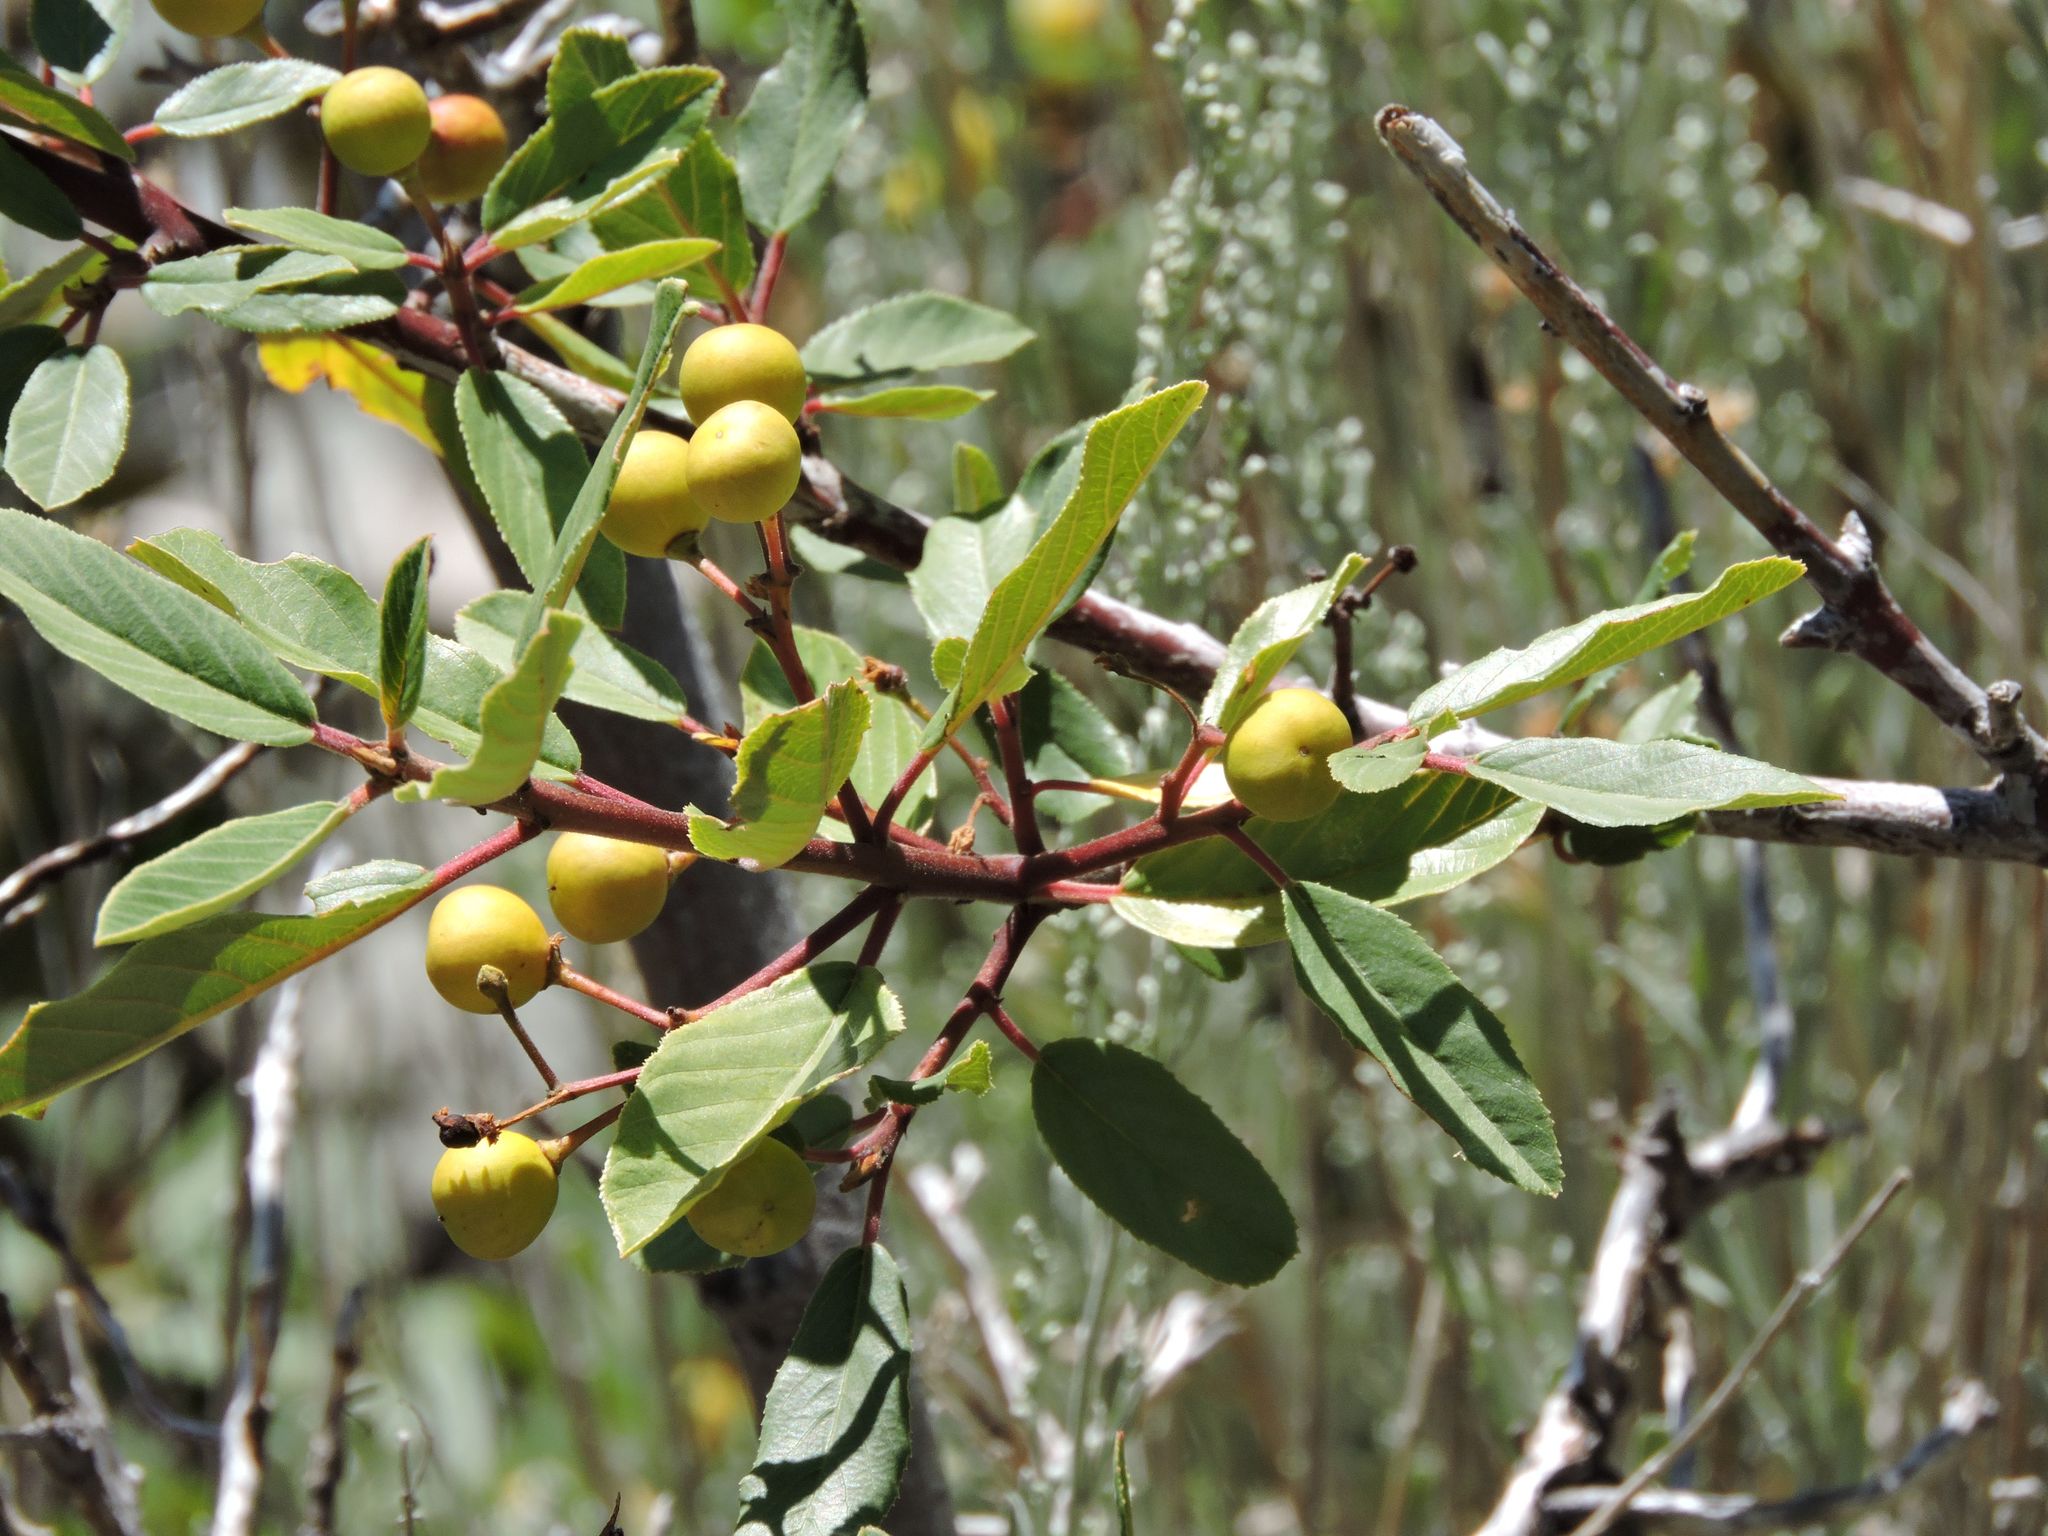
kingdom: Plantae
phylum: Tracheophyta
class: Magnoliopsida
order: Rosales
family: Rhamnaceae
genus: Frangula
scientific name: Frangula californica
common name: California buckthorn
